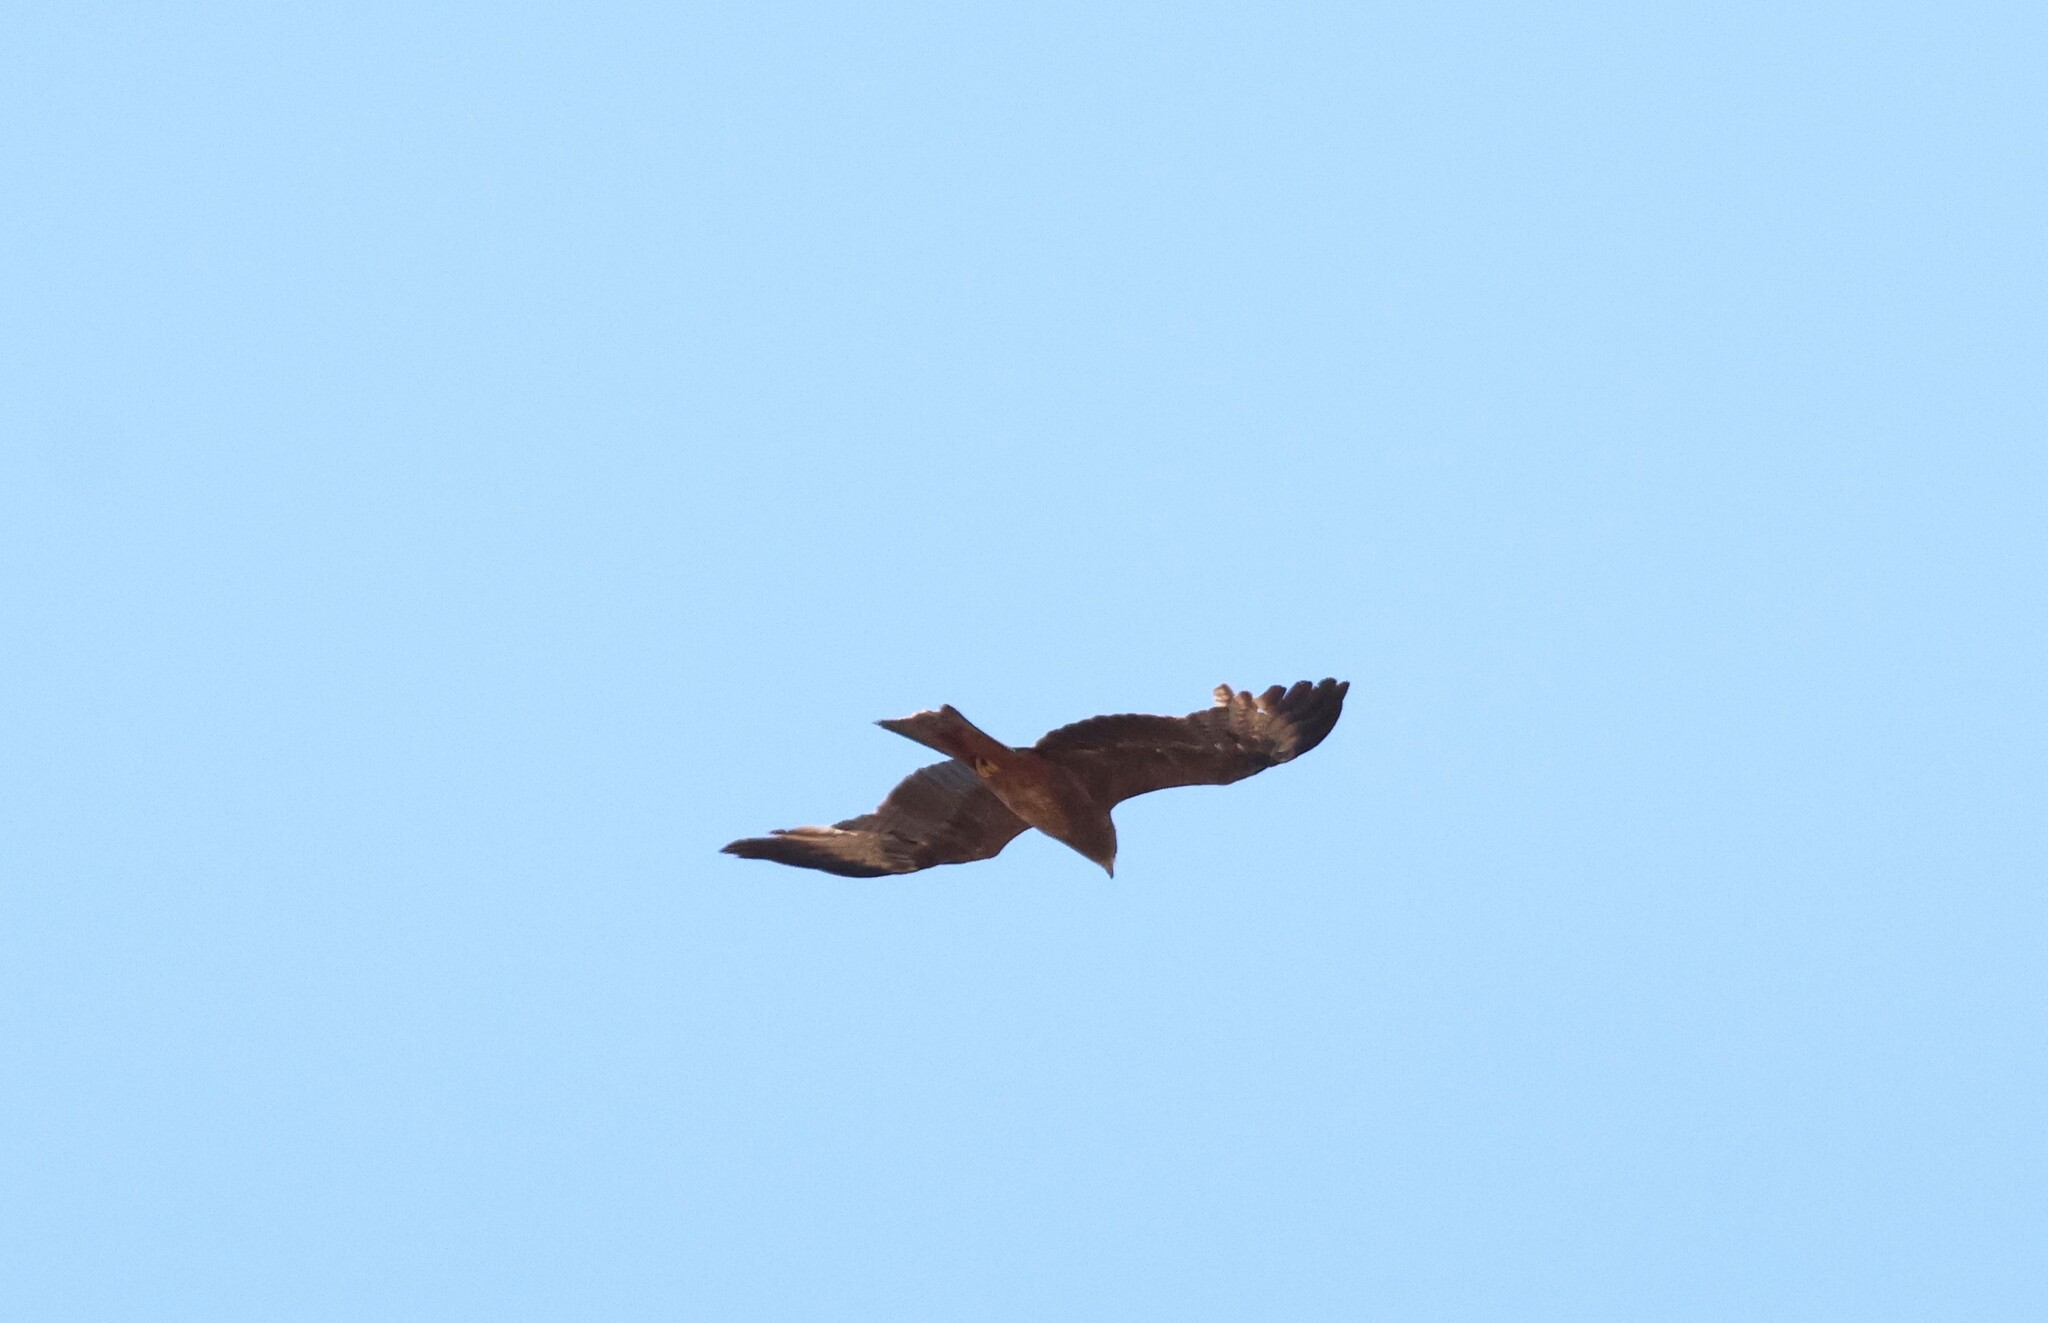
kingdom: Animalia
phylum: Chordata
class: Aves
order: Accipitriformes
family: Accipitridae
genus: Milvus
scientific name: Milvus migrans
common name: Black kite
